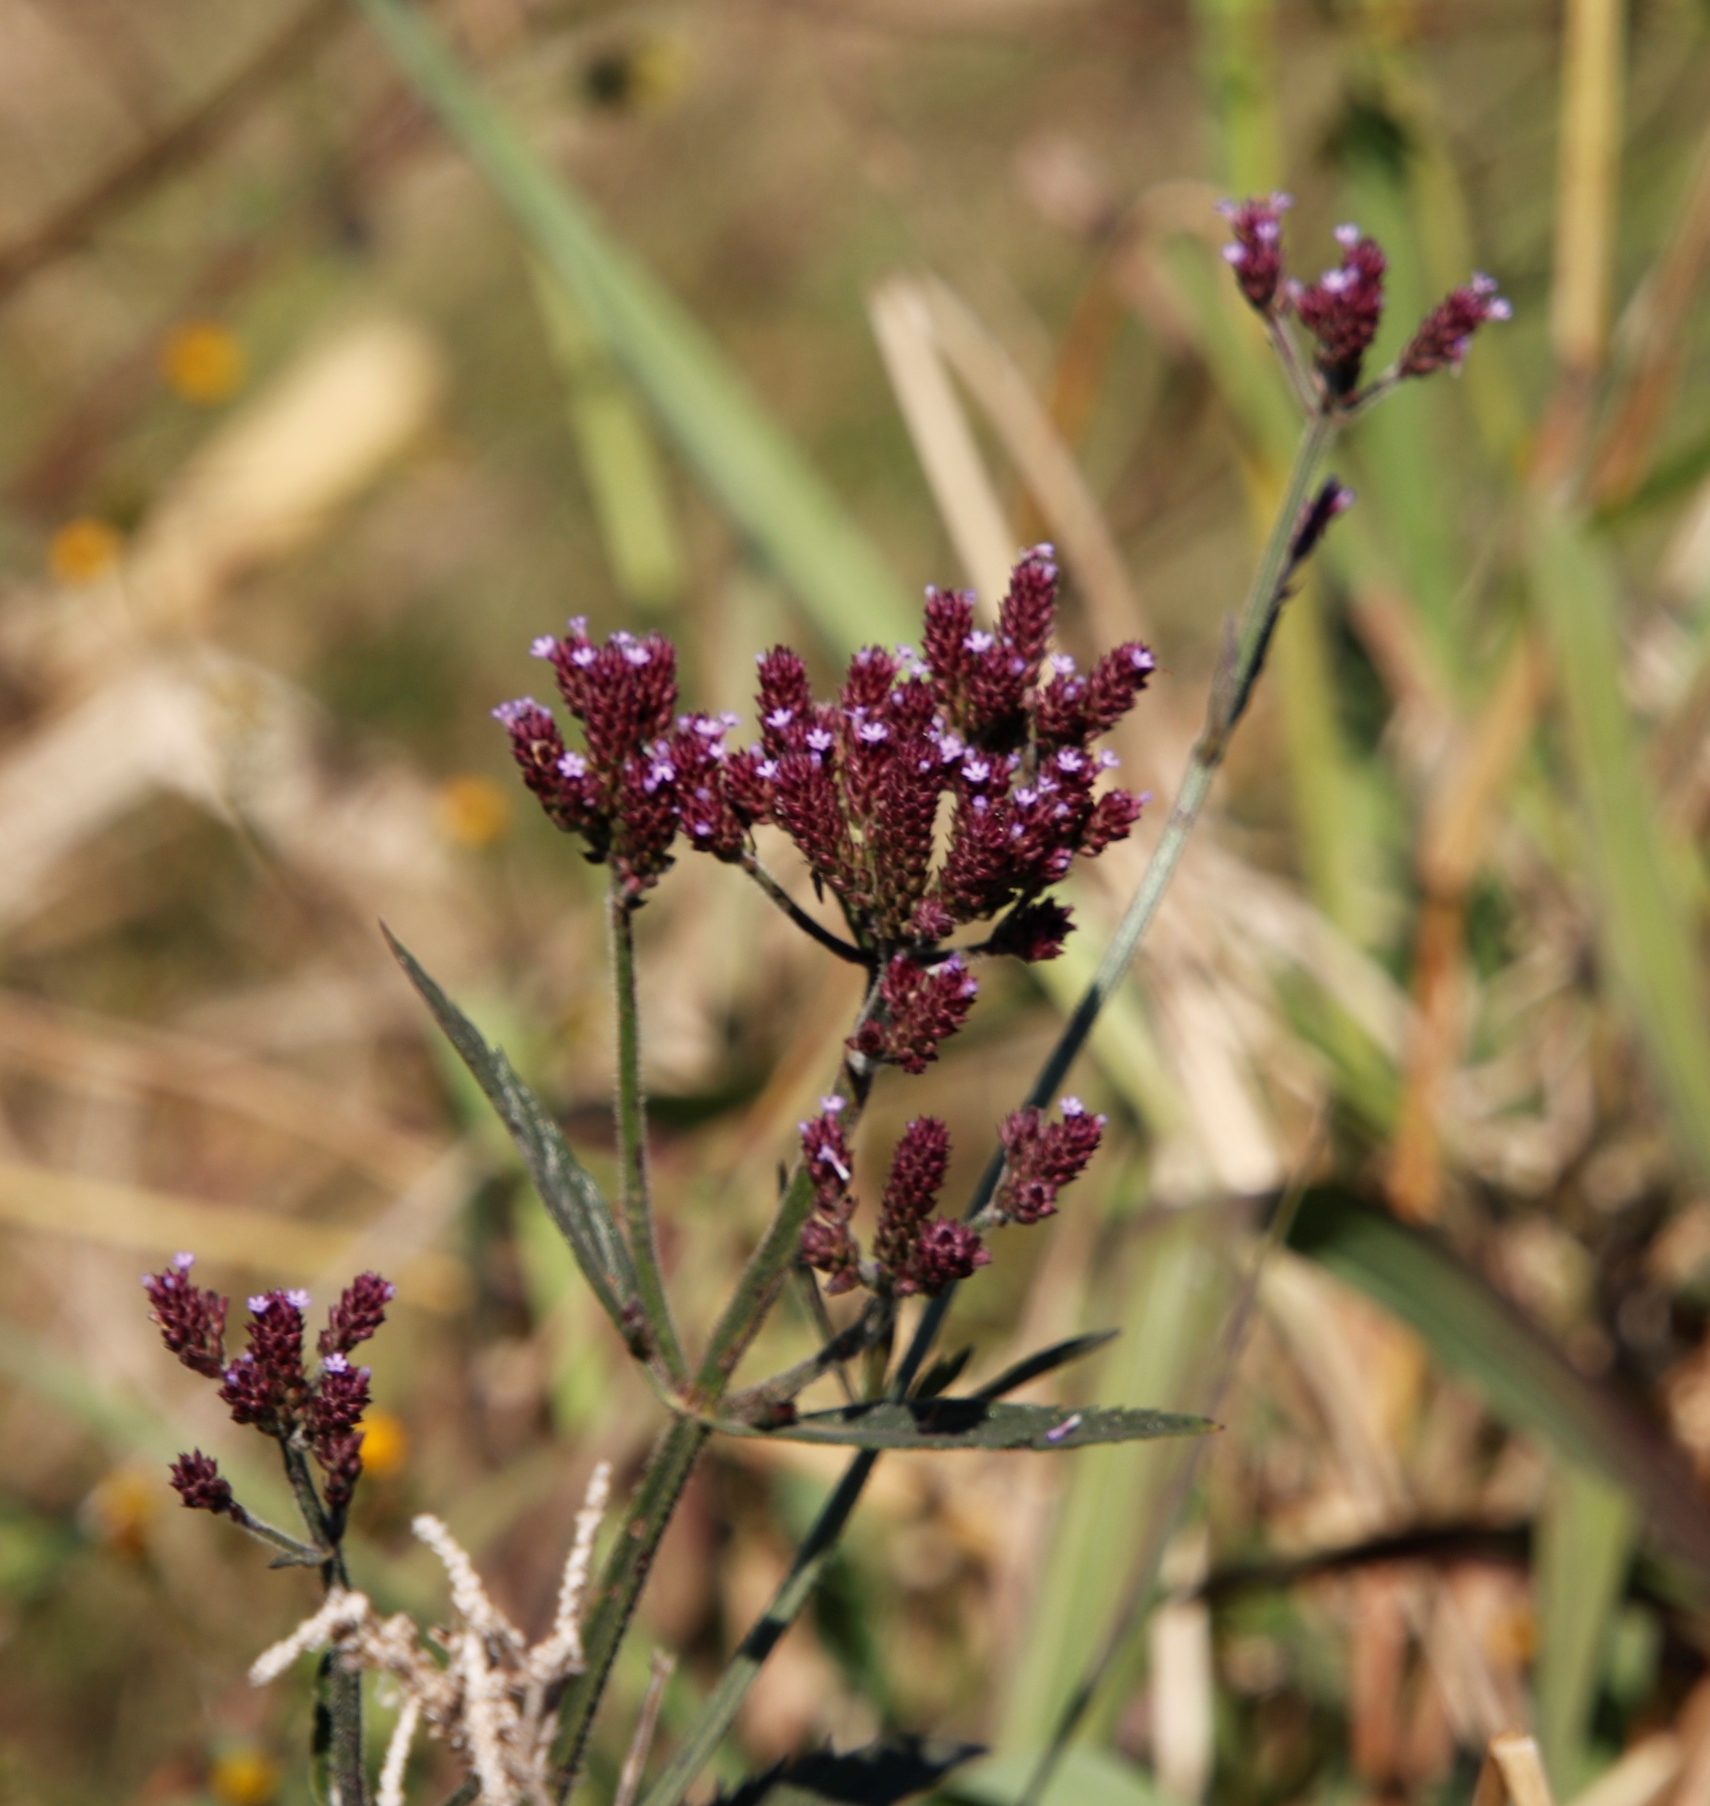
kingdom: Plantae
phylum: Tracheophyta
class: Magnoliopsida
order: Lamiales
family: Verbenaceae
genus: Verbena
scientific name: Verbena bonariensis
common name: Purpletop vervain
